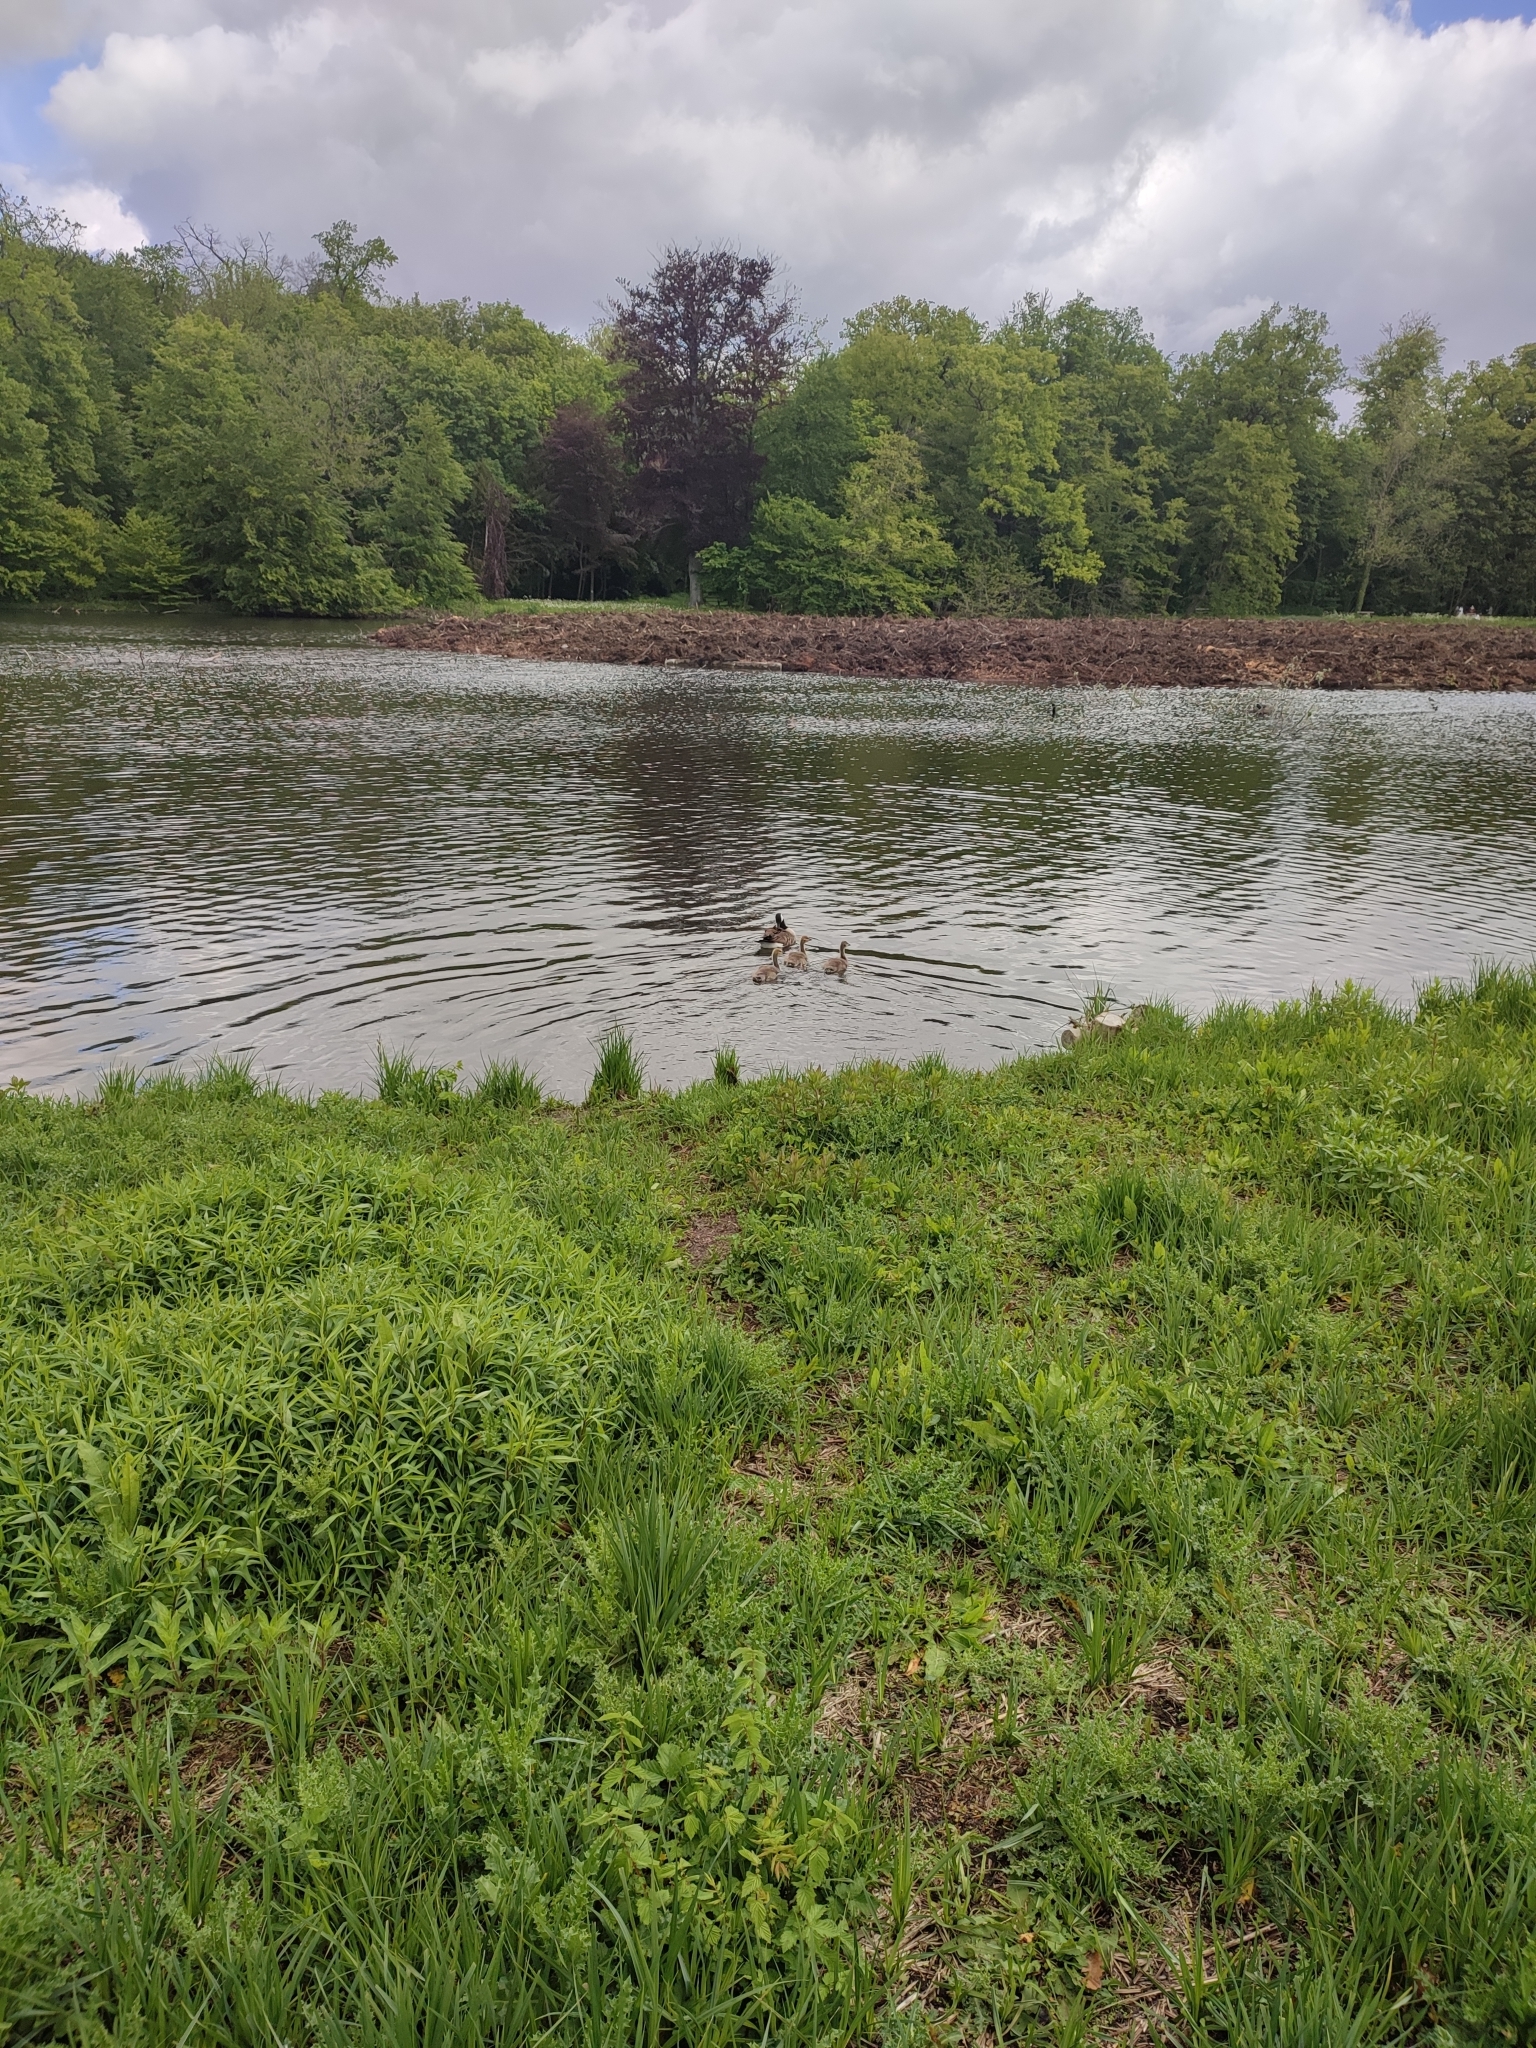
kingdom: Animalia
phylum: Chordata
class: Aves
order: Anseriformes
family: Anatidae
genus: Branta
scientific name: Branta canadensis
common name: Canada goose
